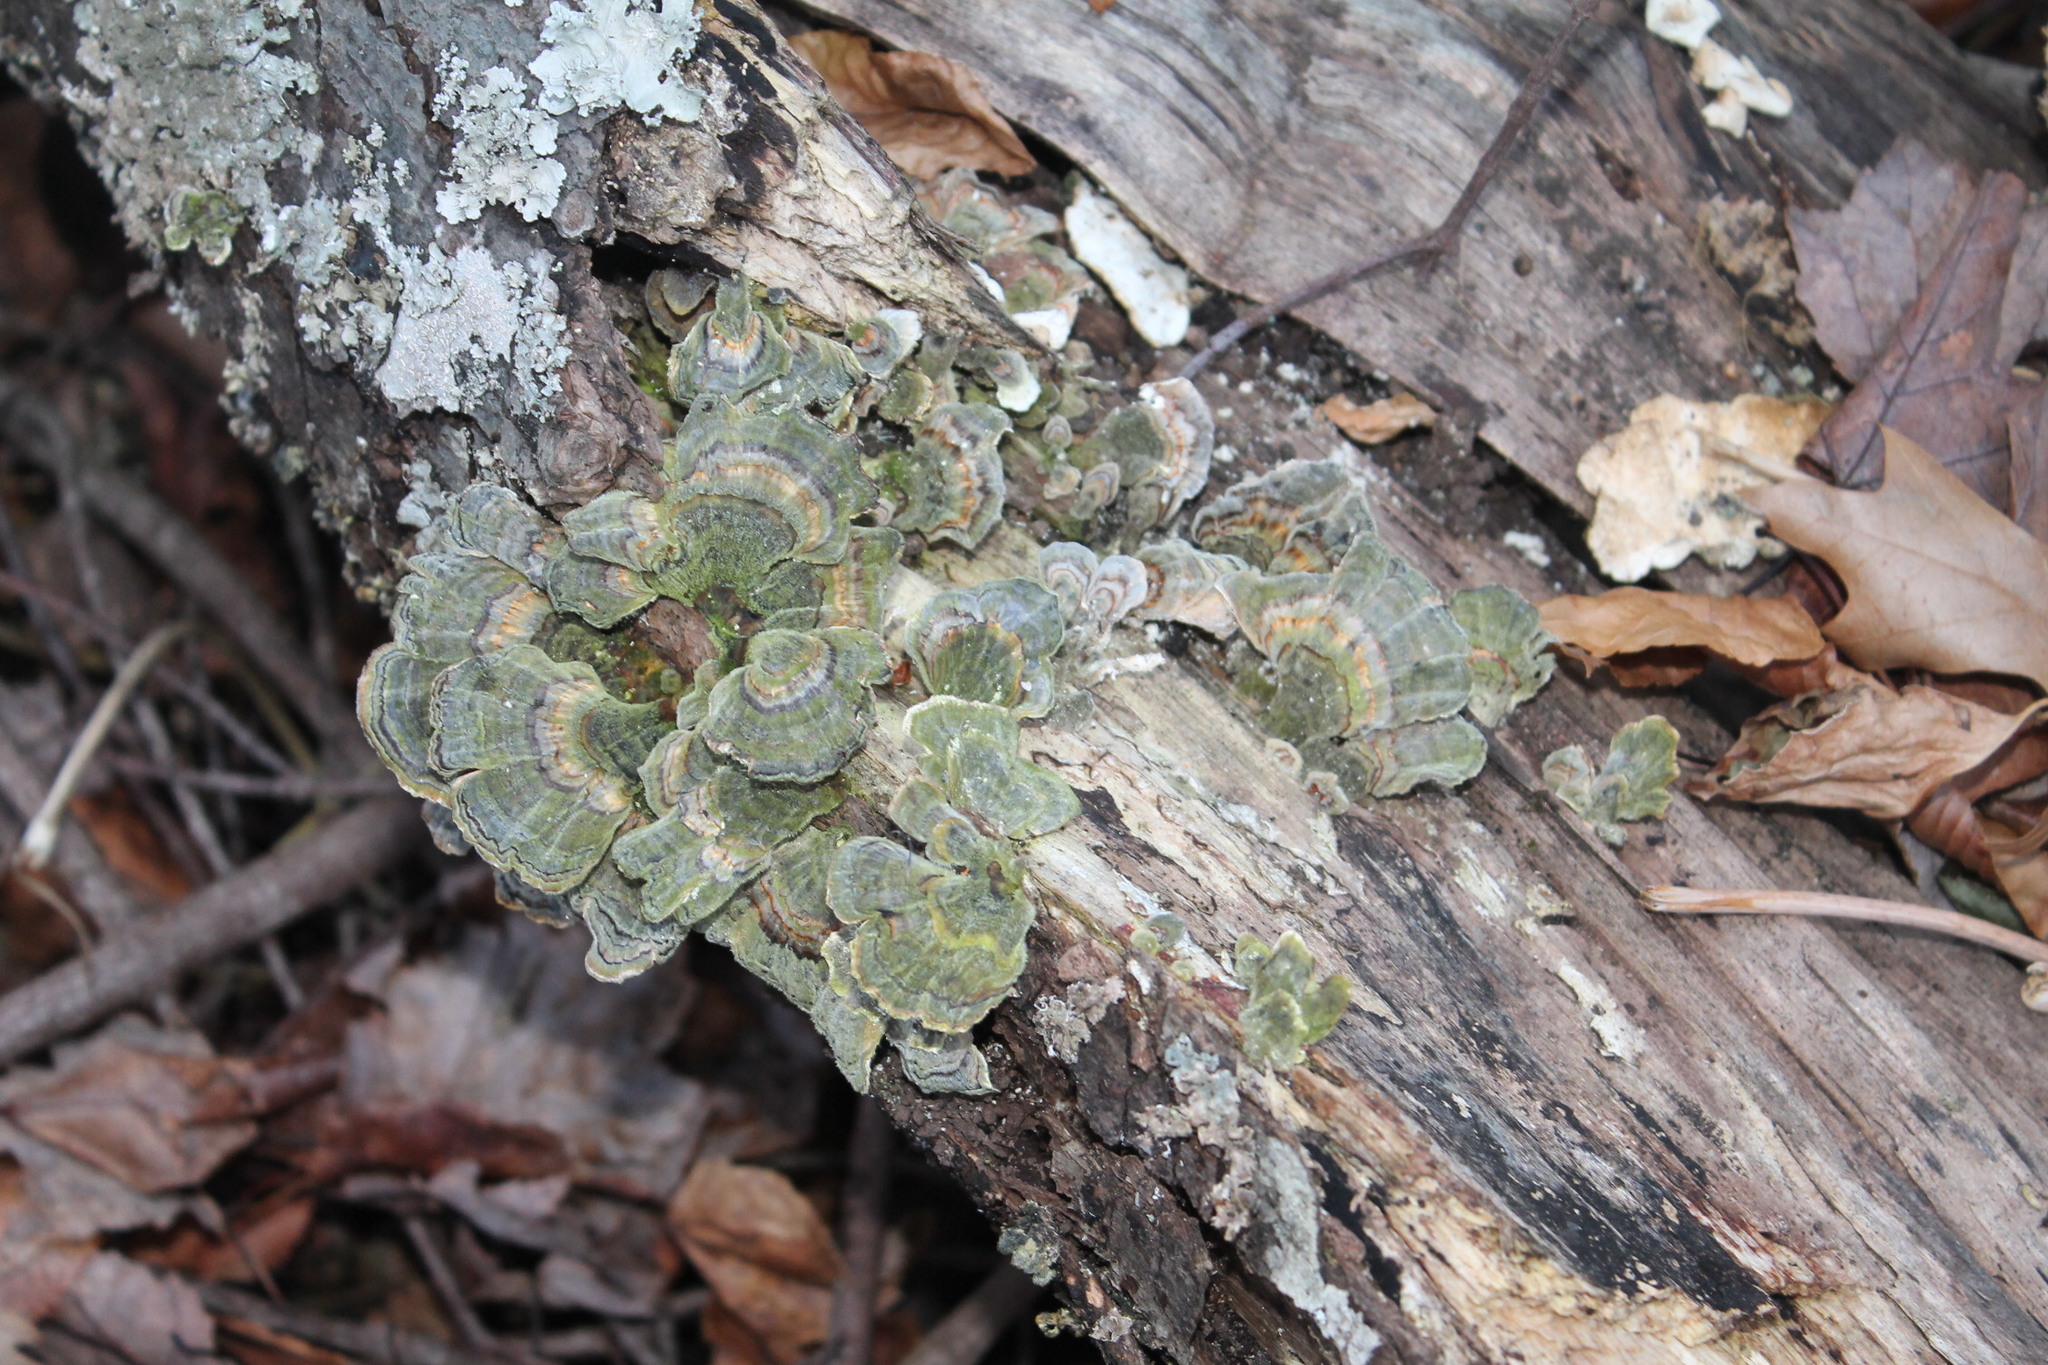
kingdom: Fungi
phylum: Basidiomycota
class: Agaricomycetes
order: Polyporales
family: Polyporaceae
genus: Trametes
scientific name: Trametes versicolor
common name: Turkeytail
